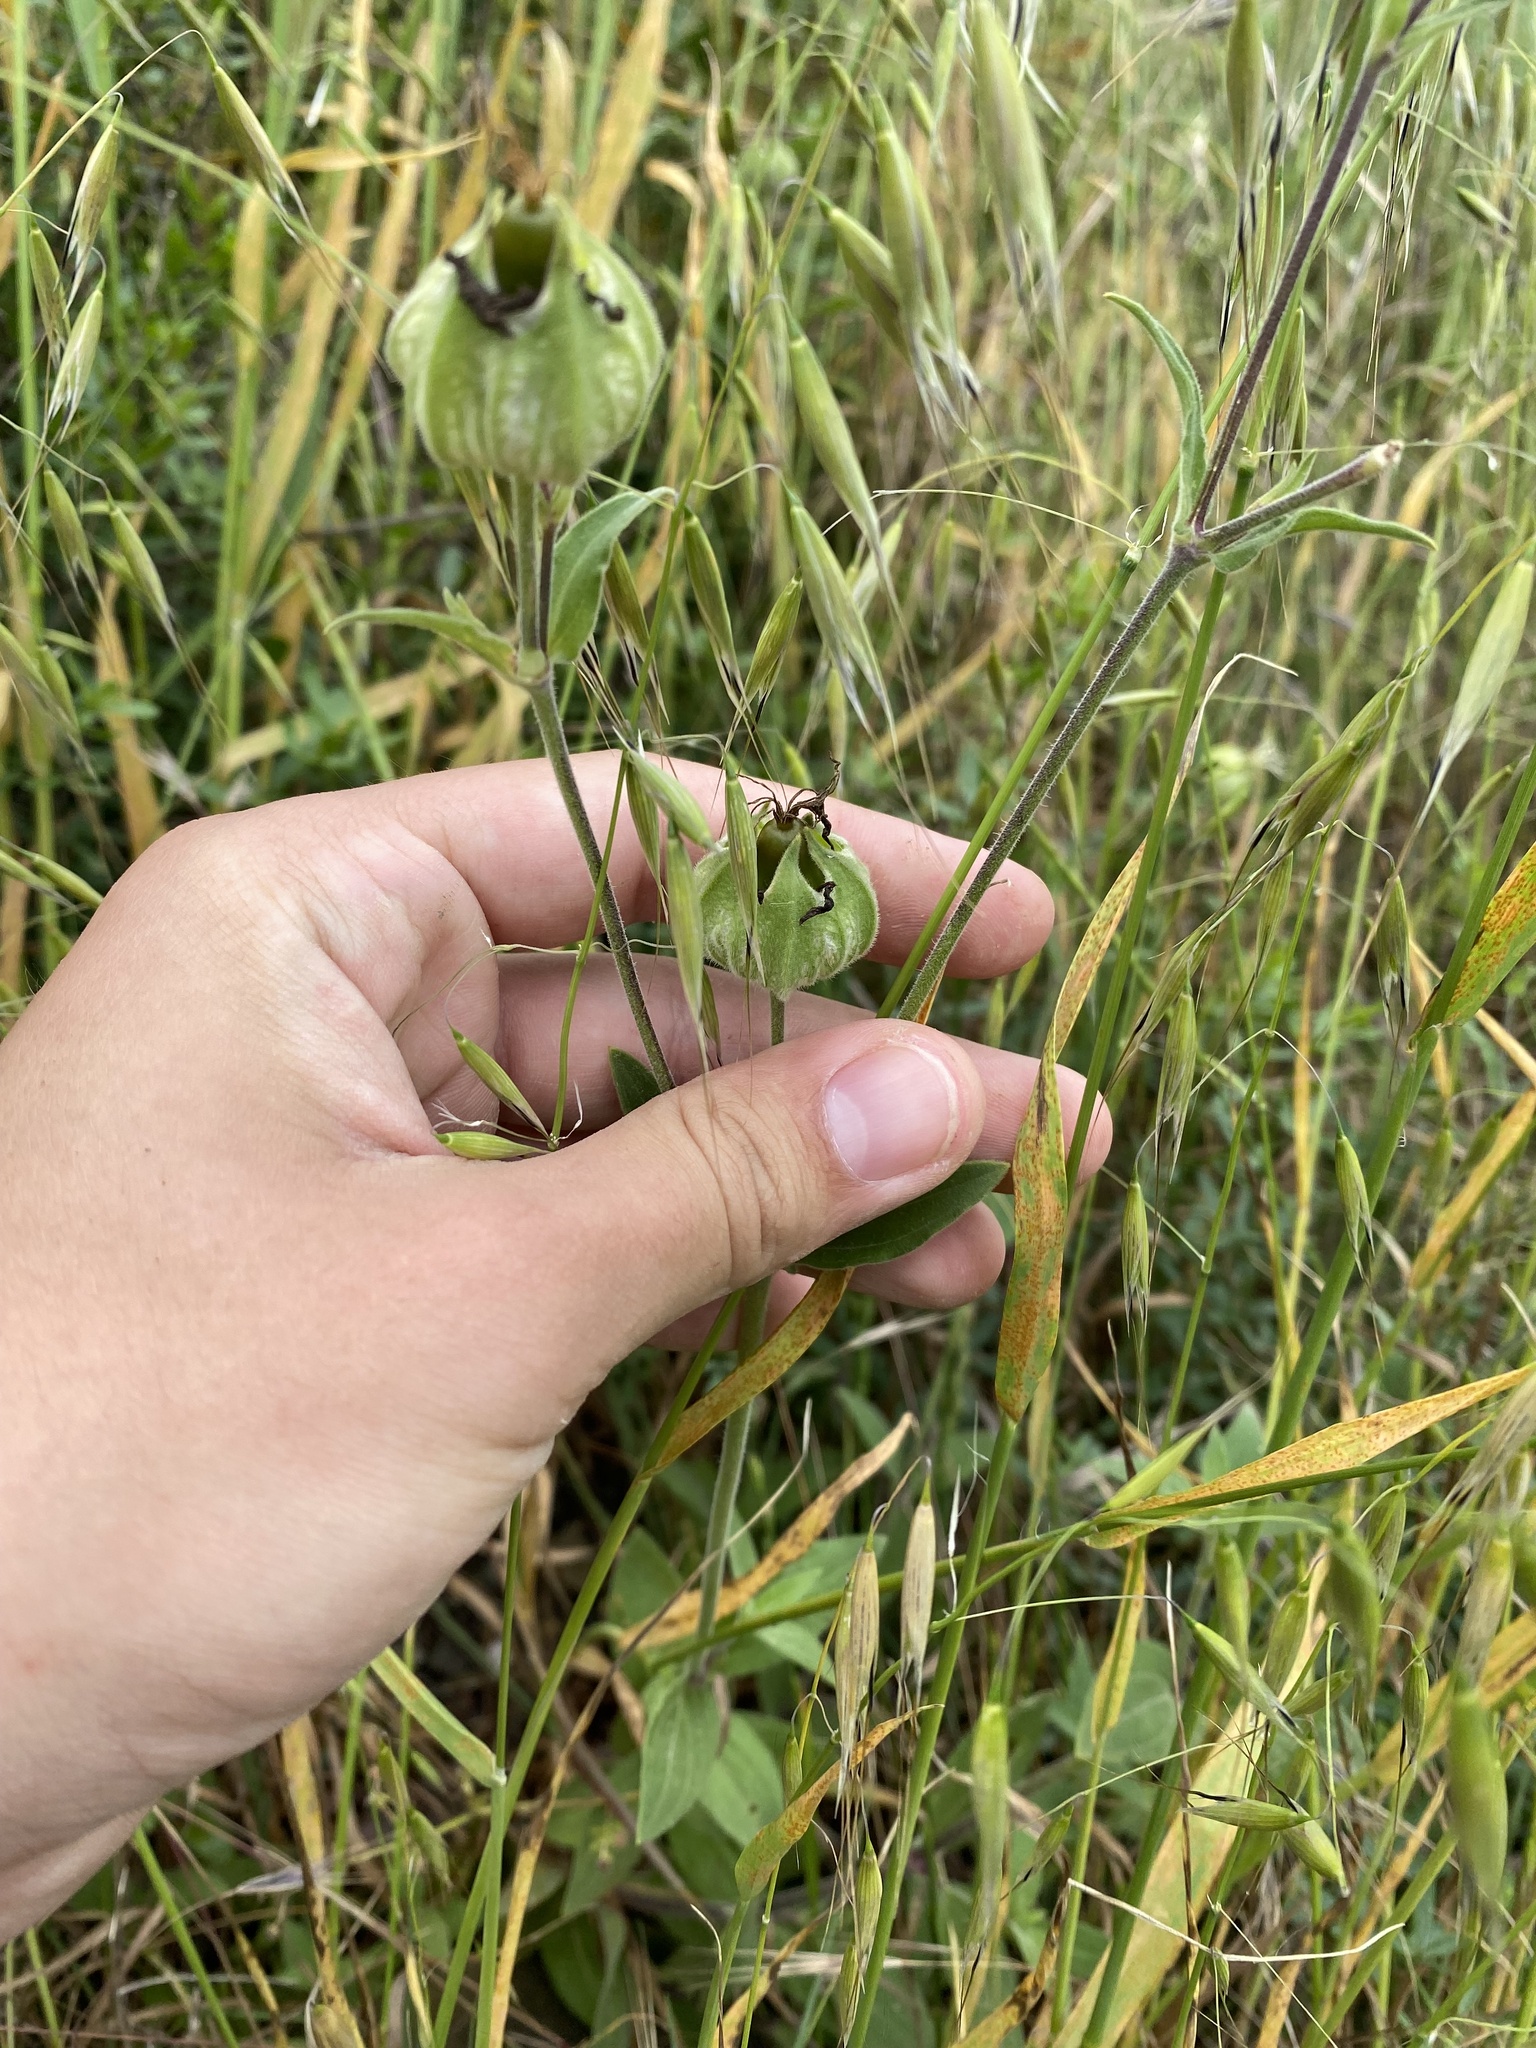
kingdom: Plantae
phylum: Tracheophyta
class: Magnoliopsida
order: Caryophyllales
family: Caryophyllaceae
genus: Silene
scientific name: Silene latifolia
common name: White campion
